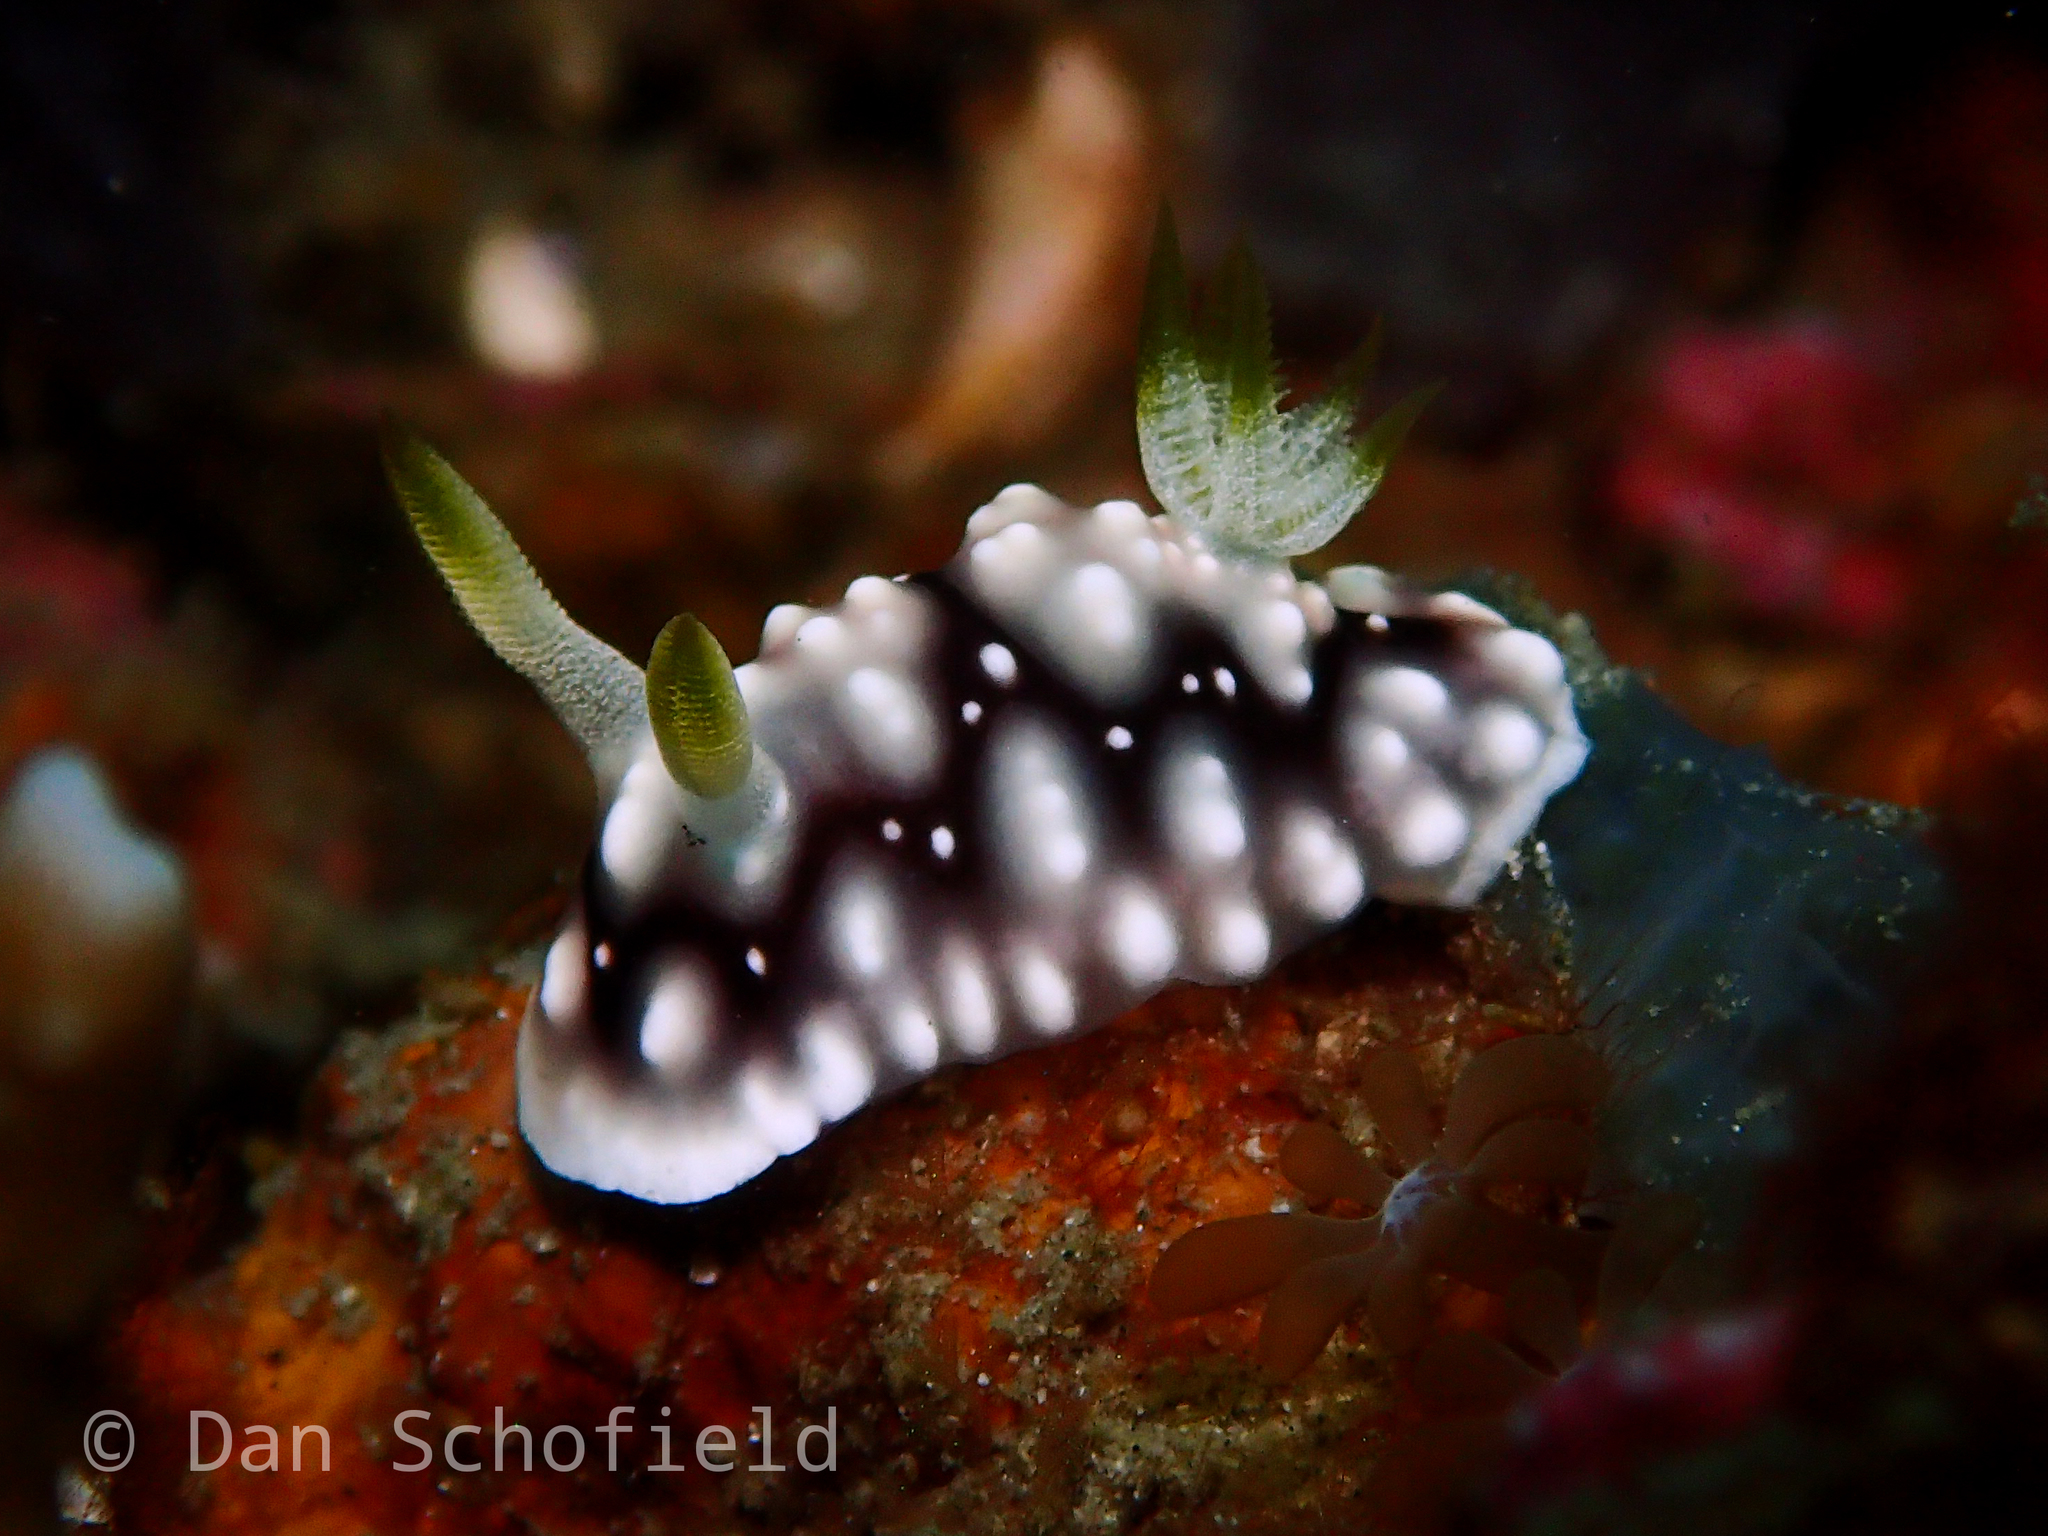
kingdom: Animalia
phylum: Mollusca
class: Gastropoda
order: Nudibranchia
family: Chromodorididae
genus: Goniobranchus
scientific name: Goniobranchus geometricus
